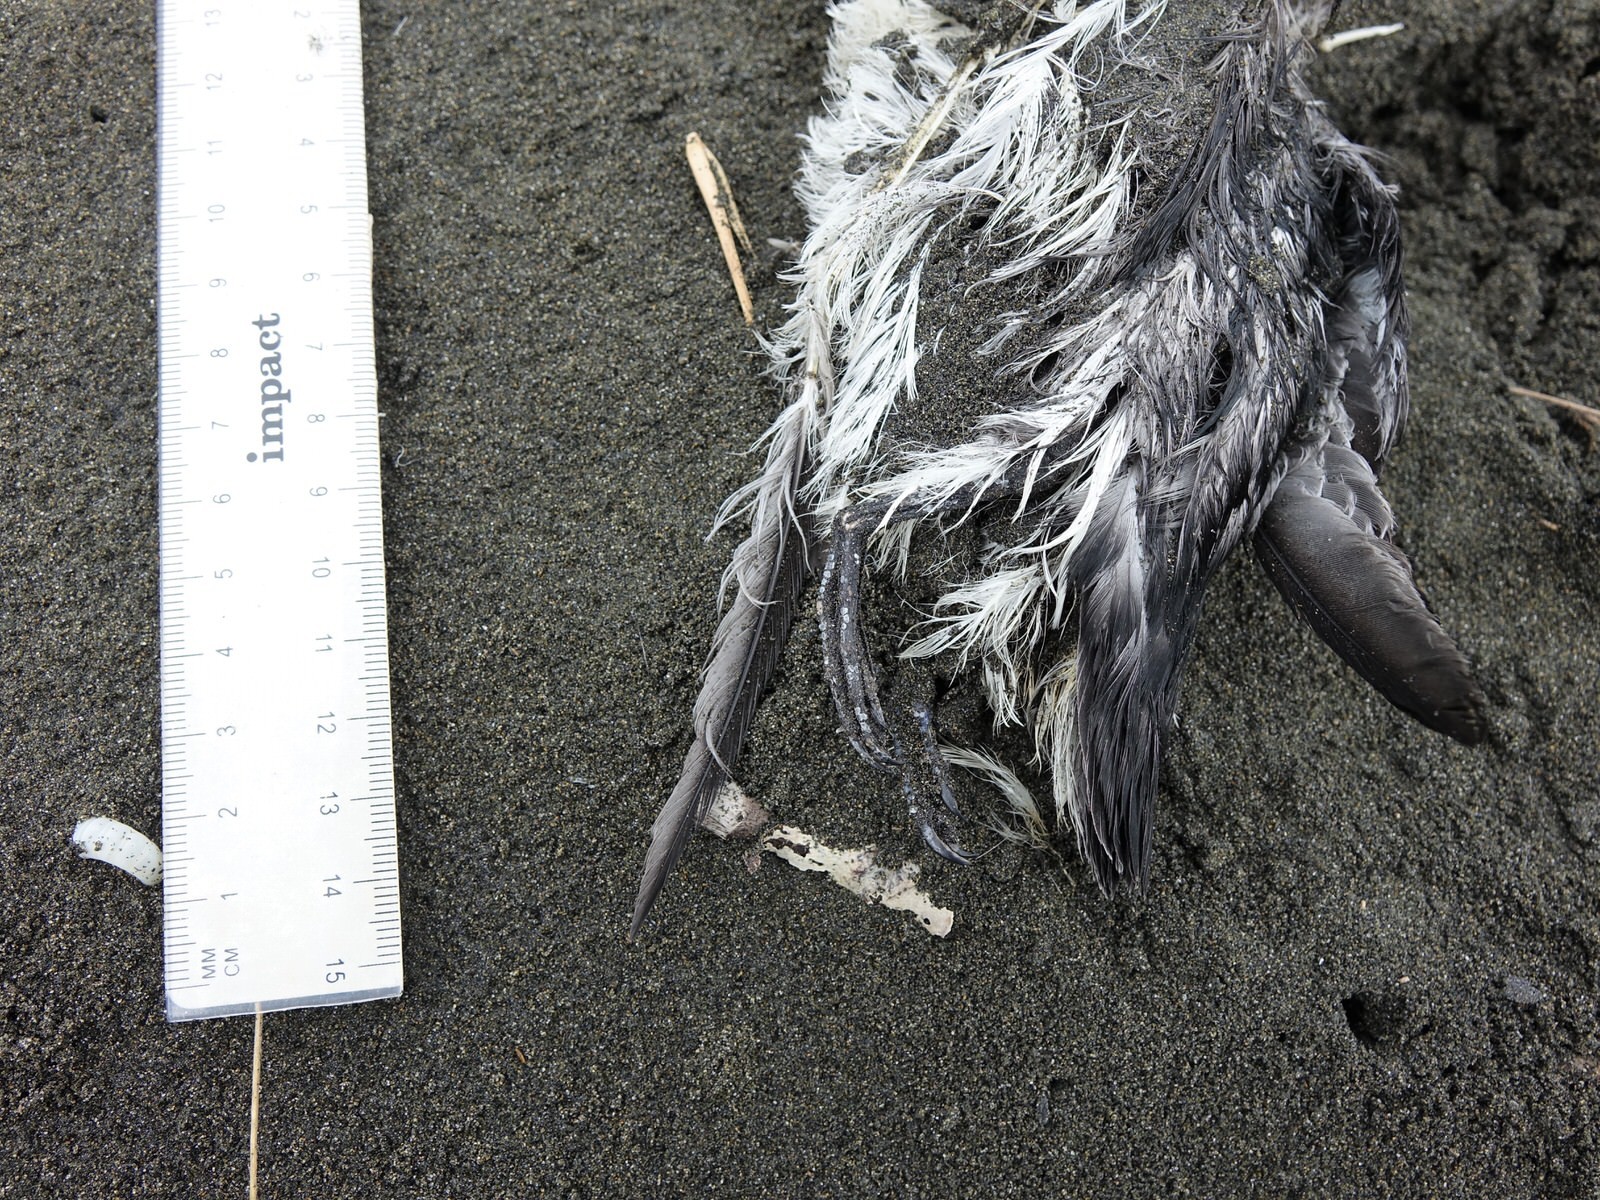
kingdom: Animalia
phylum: Chordata
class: Aves
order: Procellariiformes
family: Pelecanoididae
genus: Pelecanoides
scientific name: Pelecanoides urinatrix
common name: Common diving-petrel
